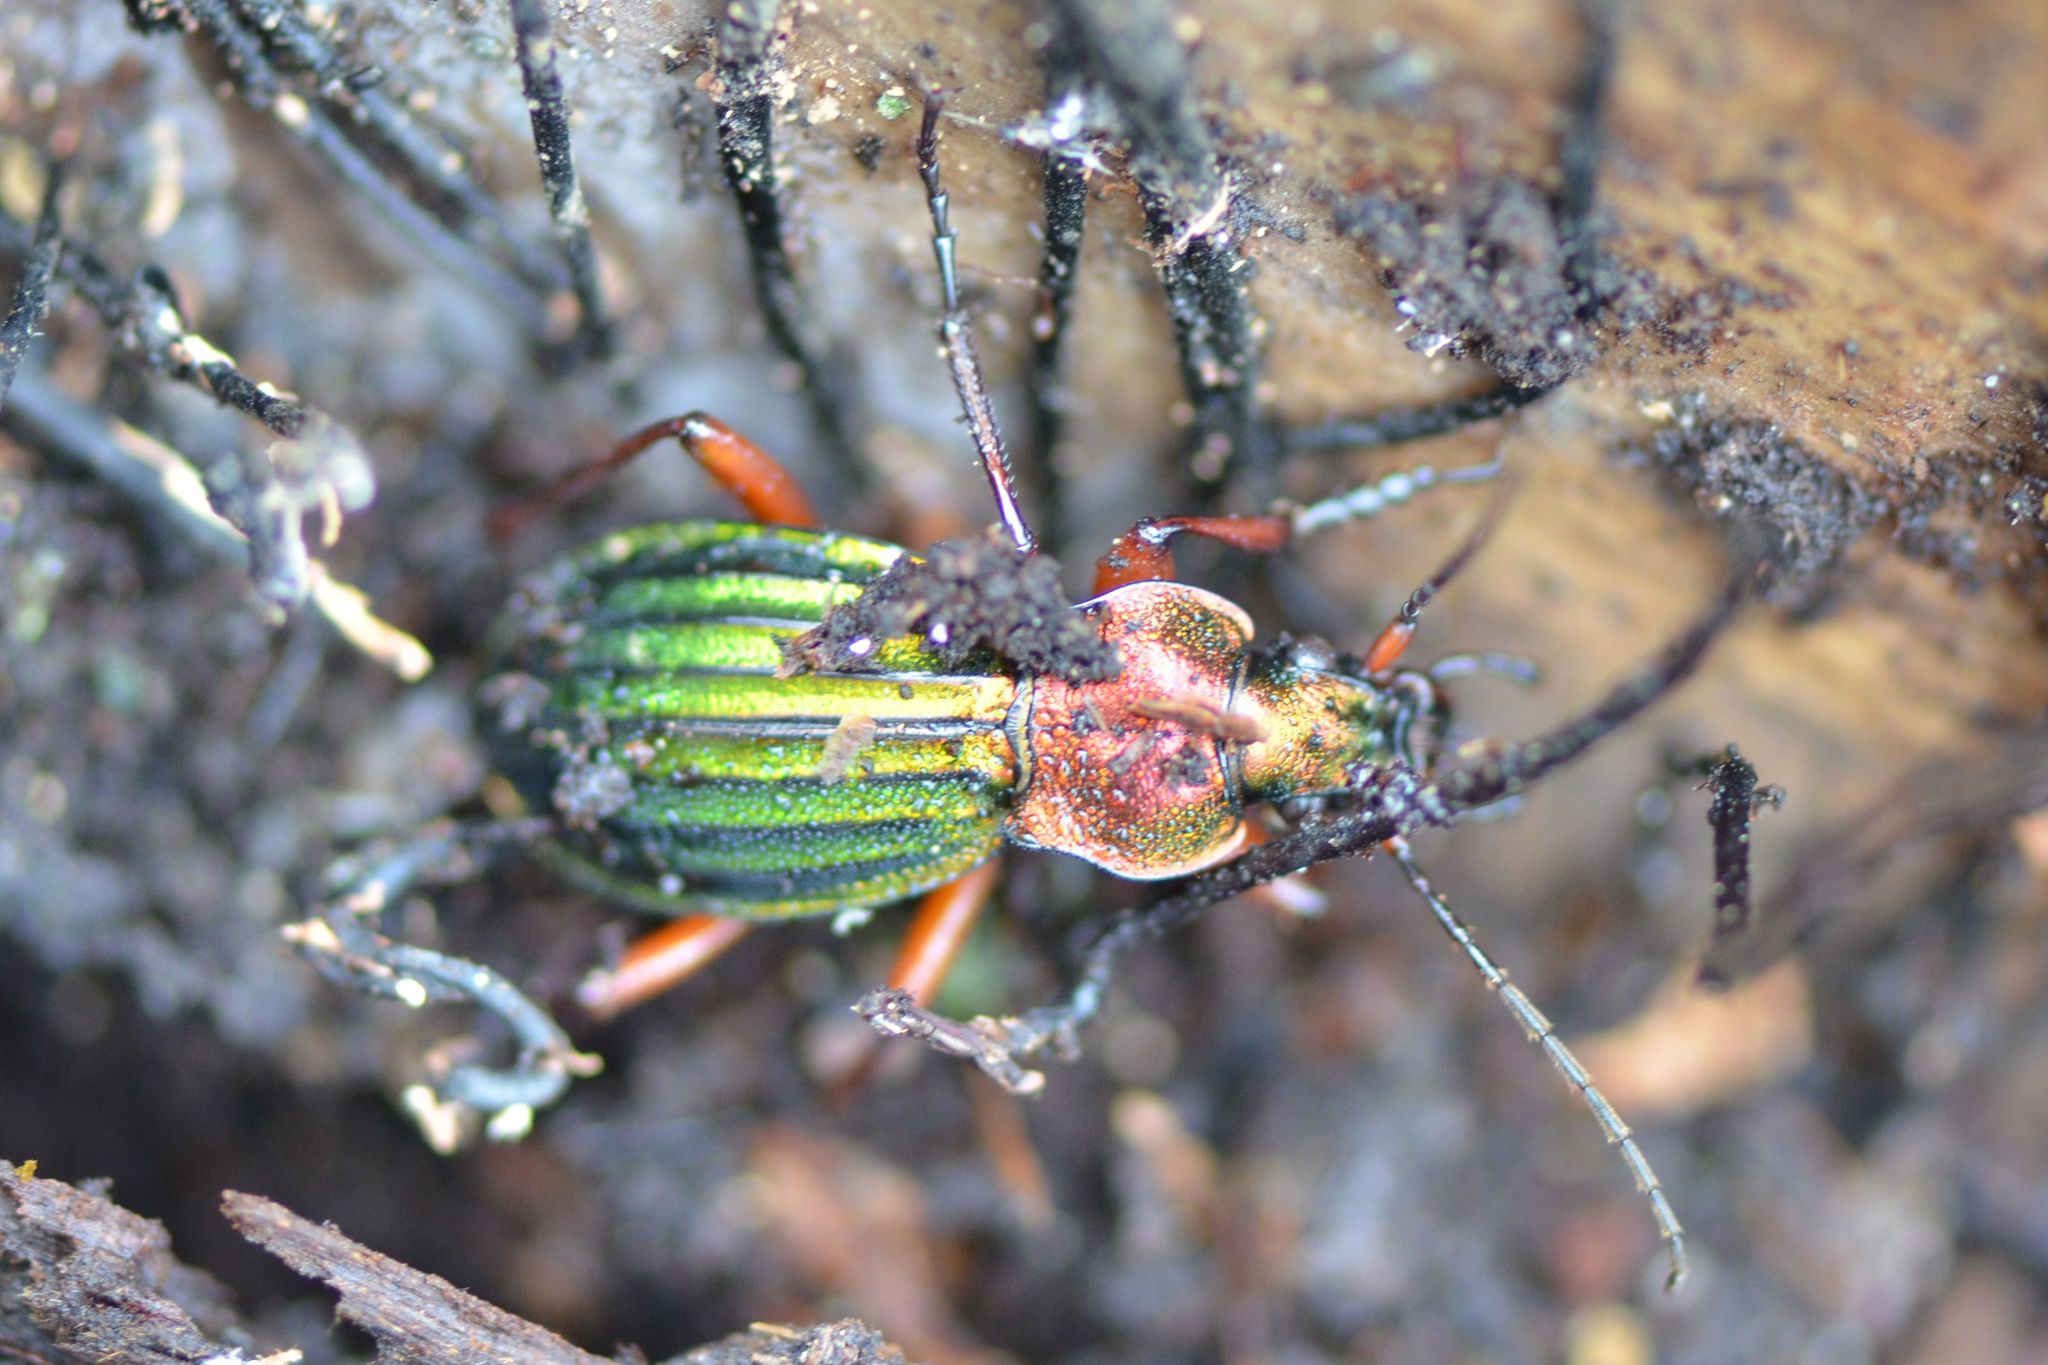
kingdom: Animalia
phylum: Arthropoda
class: Insecta
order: Coleoptera
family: Carabidae
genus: Carabus
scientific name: Carabus auronitens
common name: Carabus auronitens
